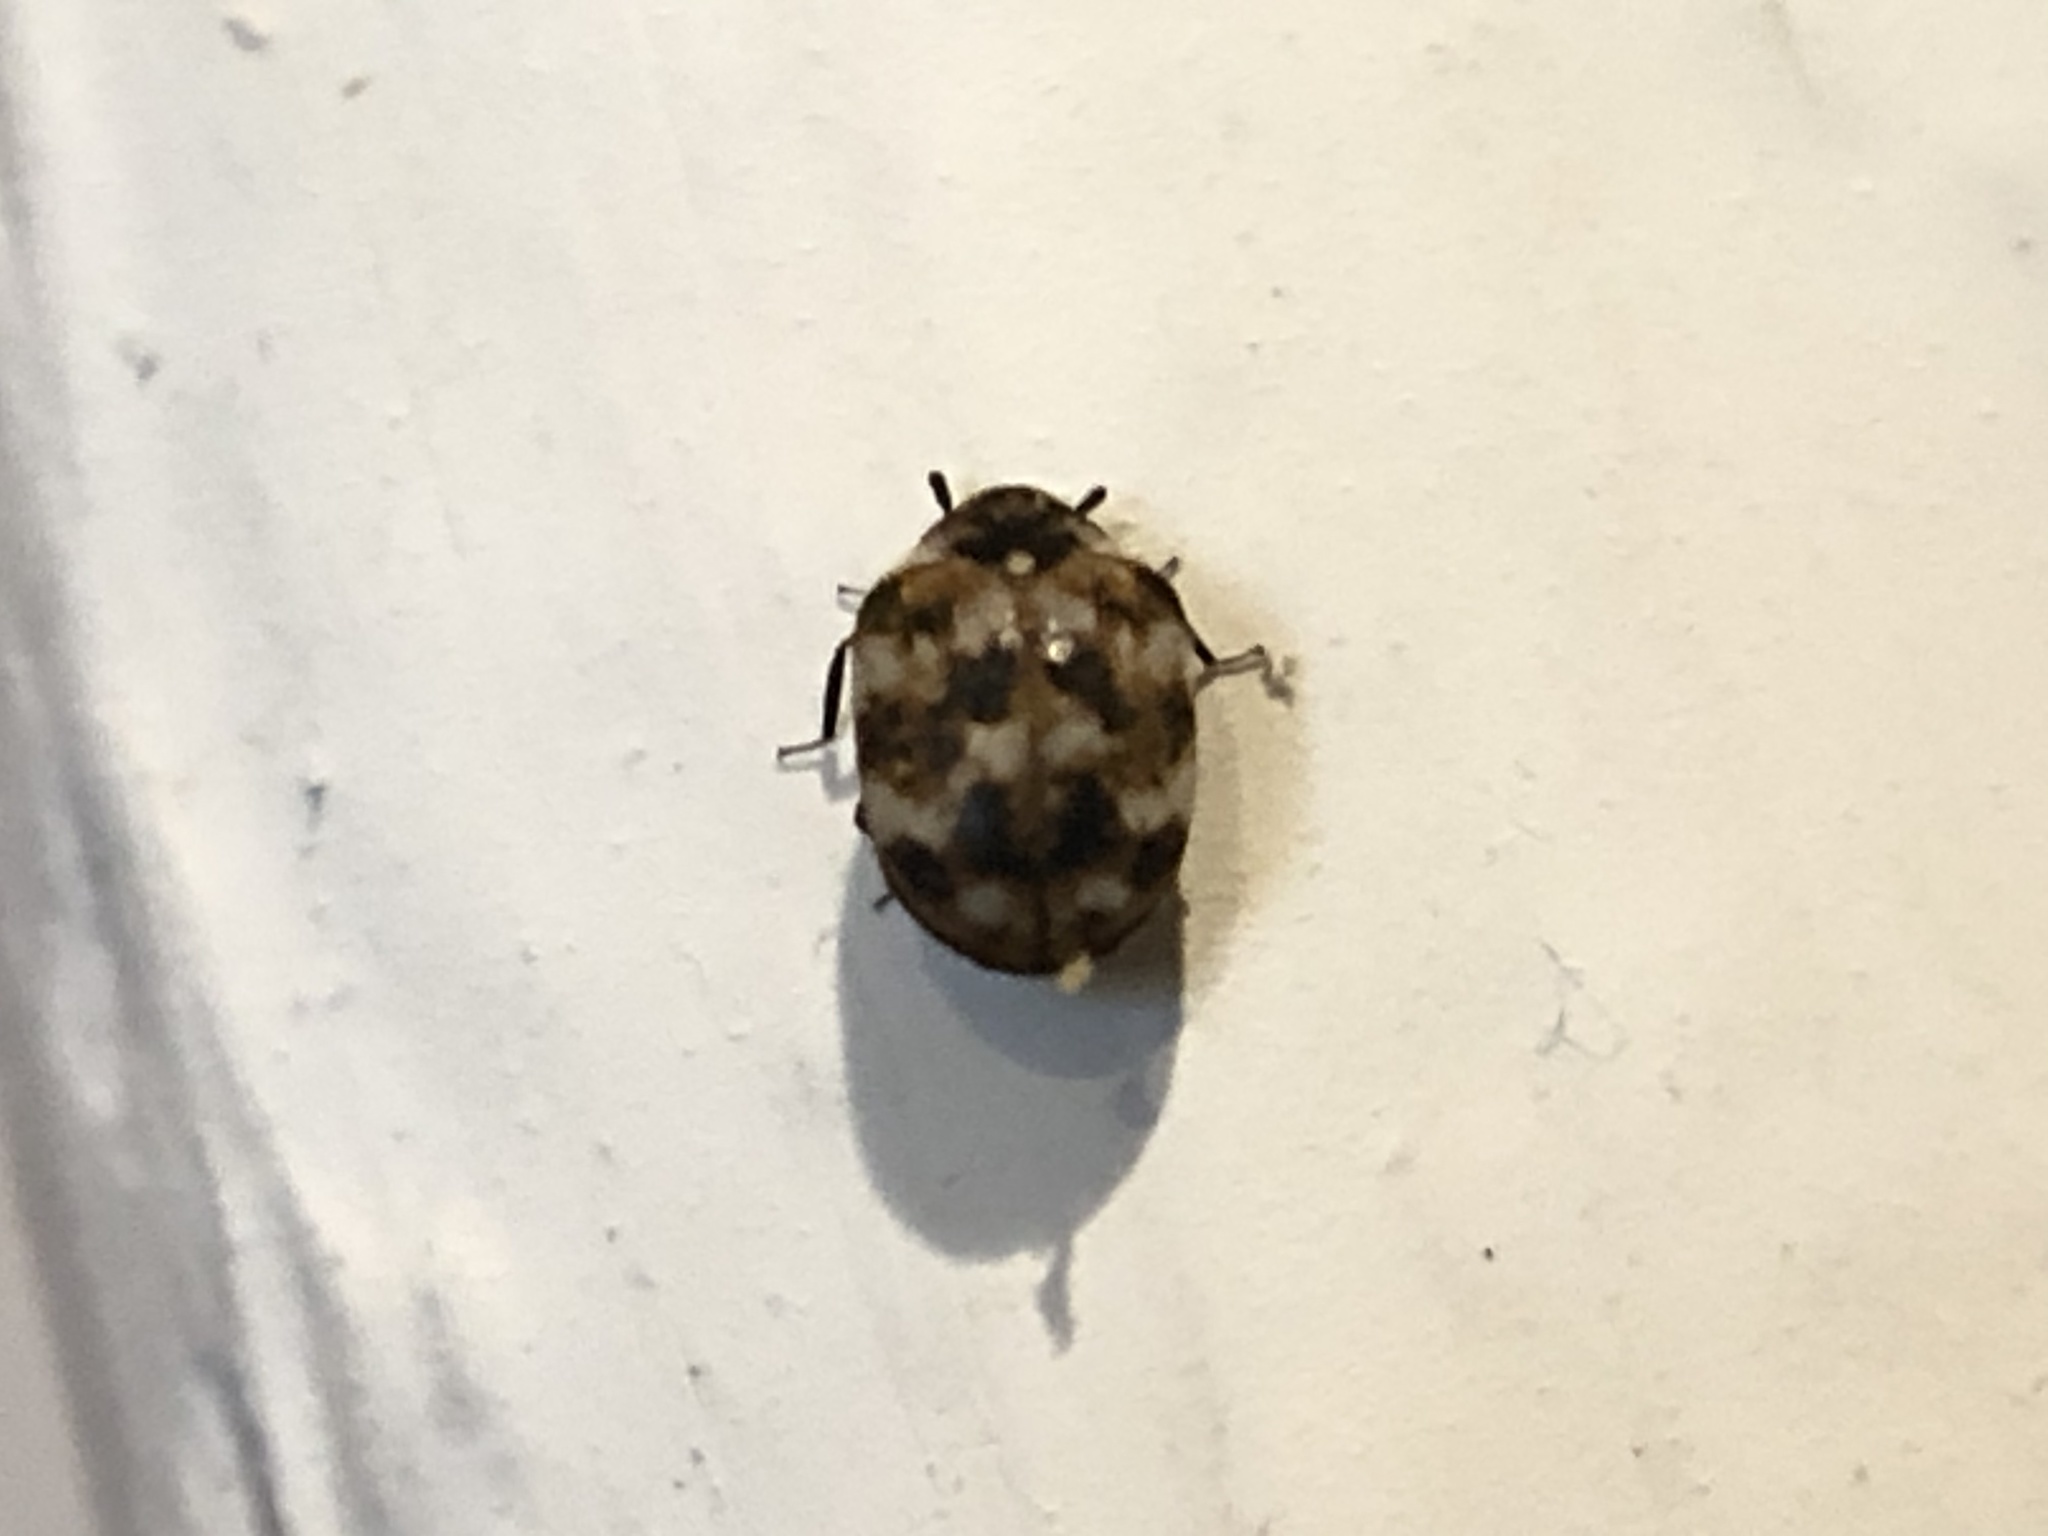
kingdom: Animalia
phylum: Arthropoda
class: Insecta
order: Coleoptera
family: Dermestidae
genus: Anthrenus
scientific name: Anthrenus verbasci
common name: Varied carpet beetle
